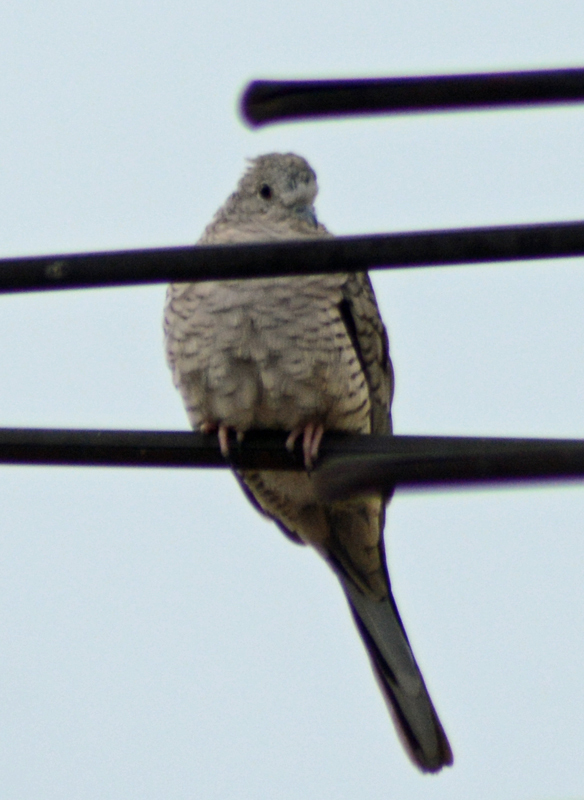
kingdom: Animalia
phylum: Chordata
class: Aves
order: Columbiformes
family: Columbidae
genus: Columbina
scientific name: Columbina inca
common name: Inca dove
